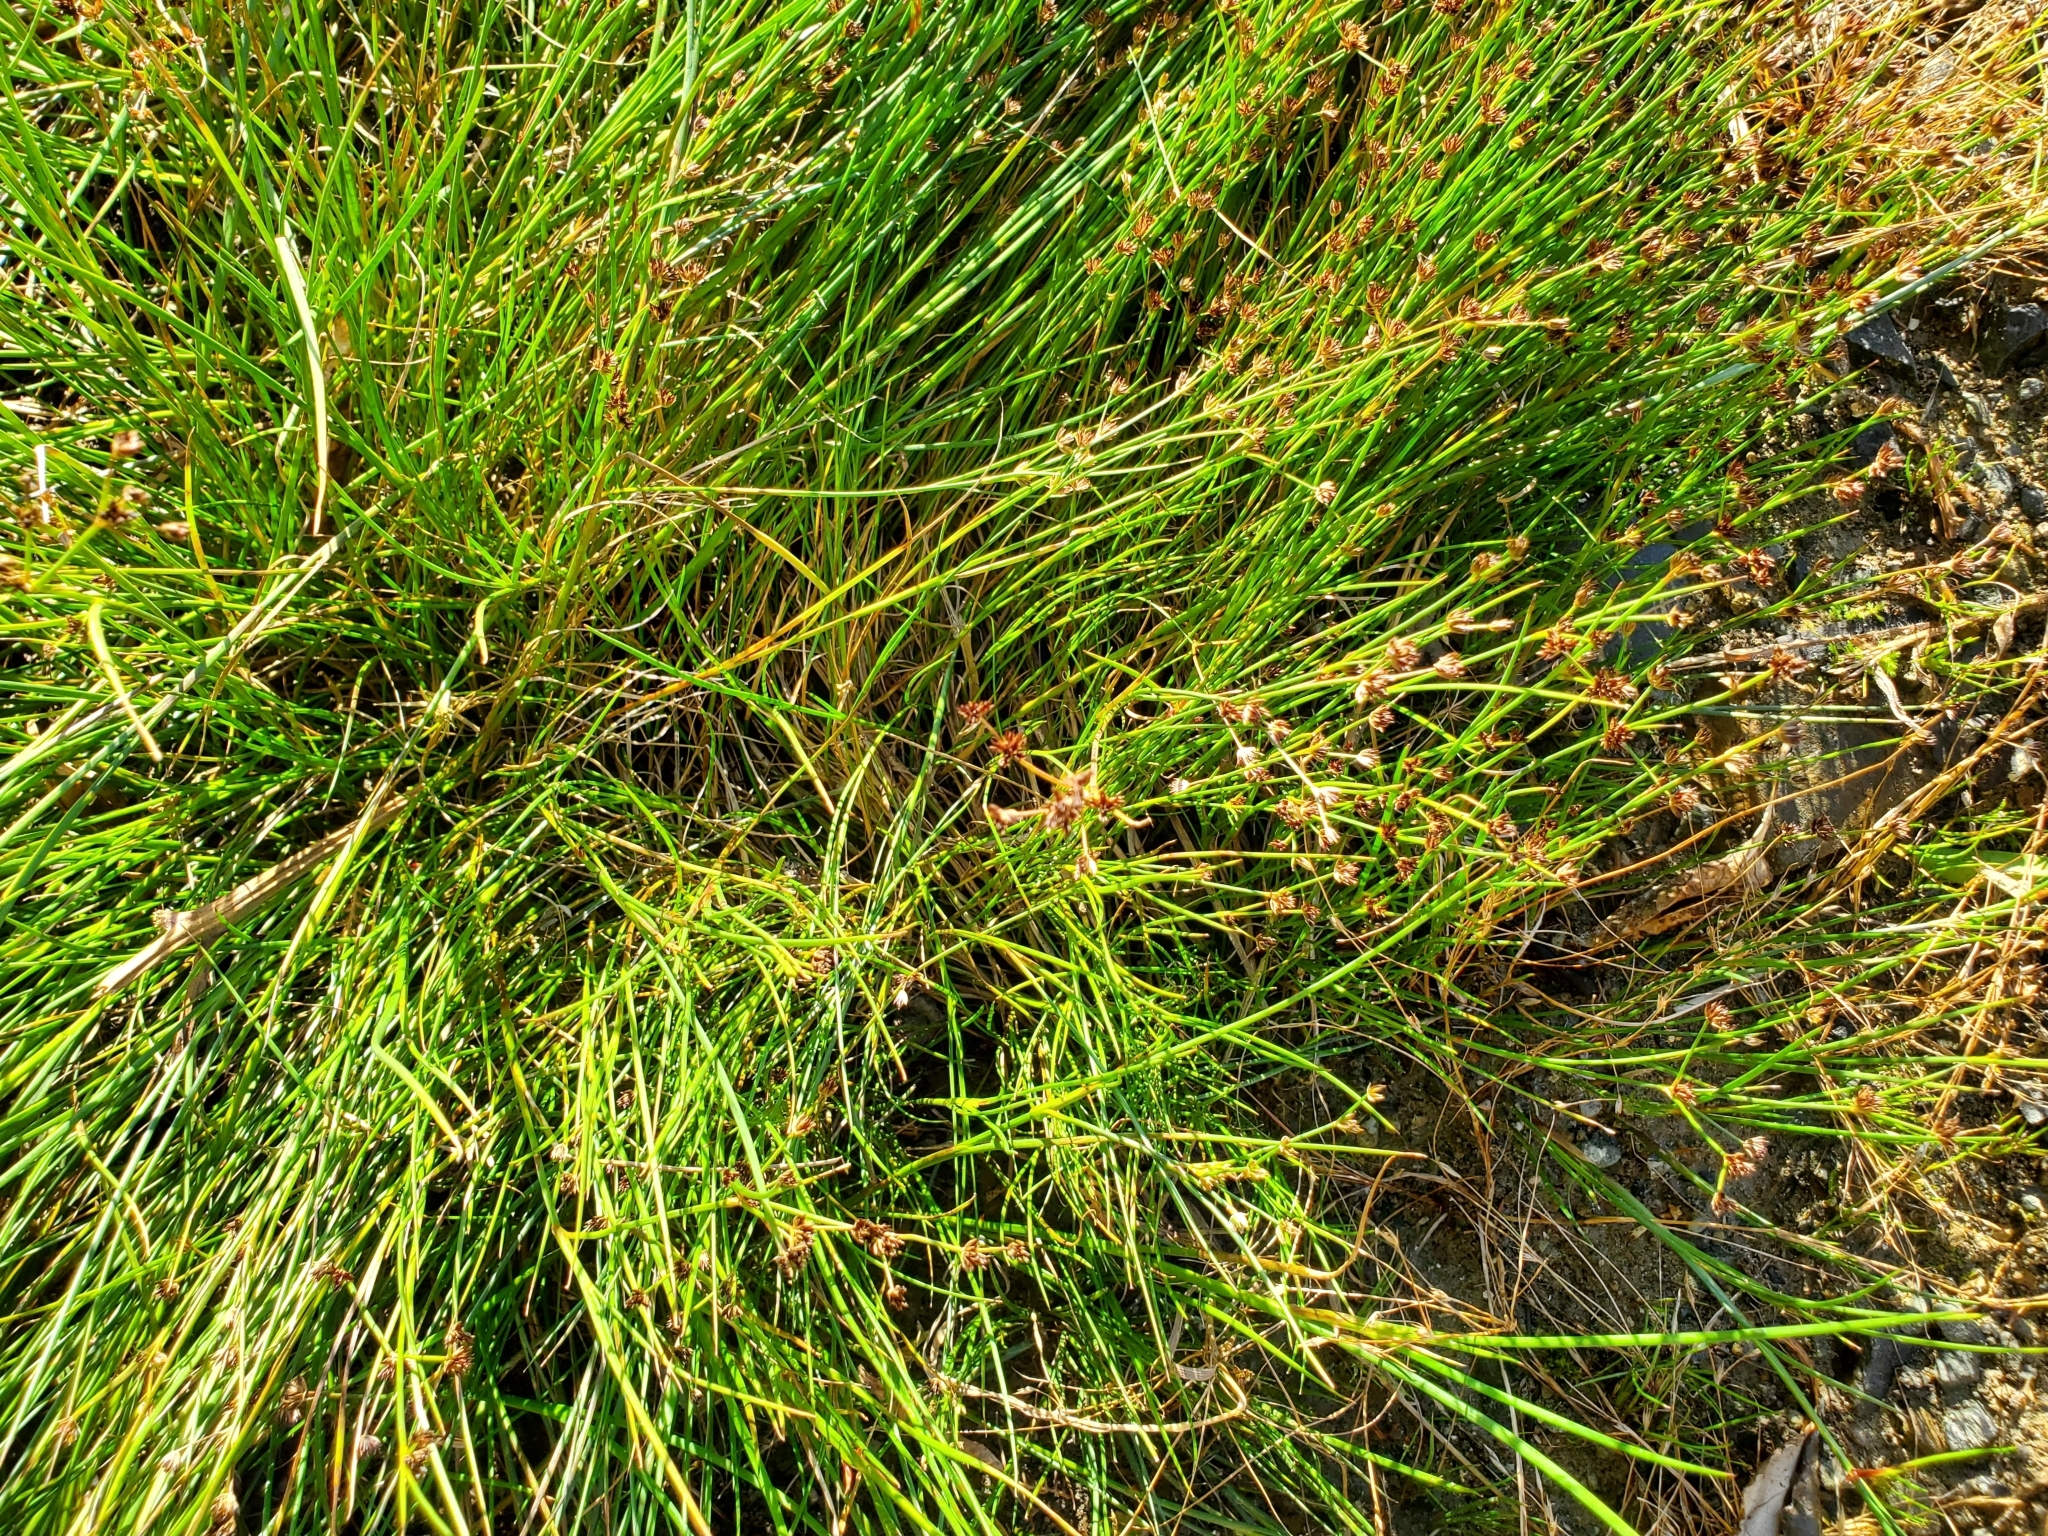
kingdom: Plantae
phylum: Tracheophyta
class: Liliopsida
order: Poales
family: Juncaceae
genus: Juncus
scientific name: Juncus articulatus
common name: Jointed rush
